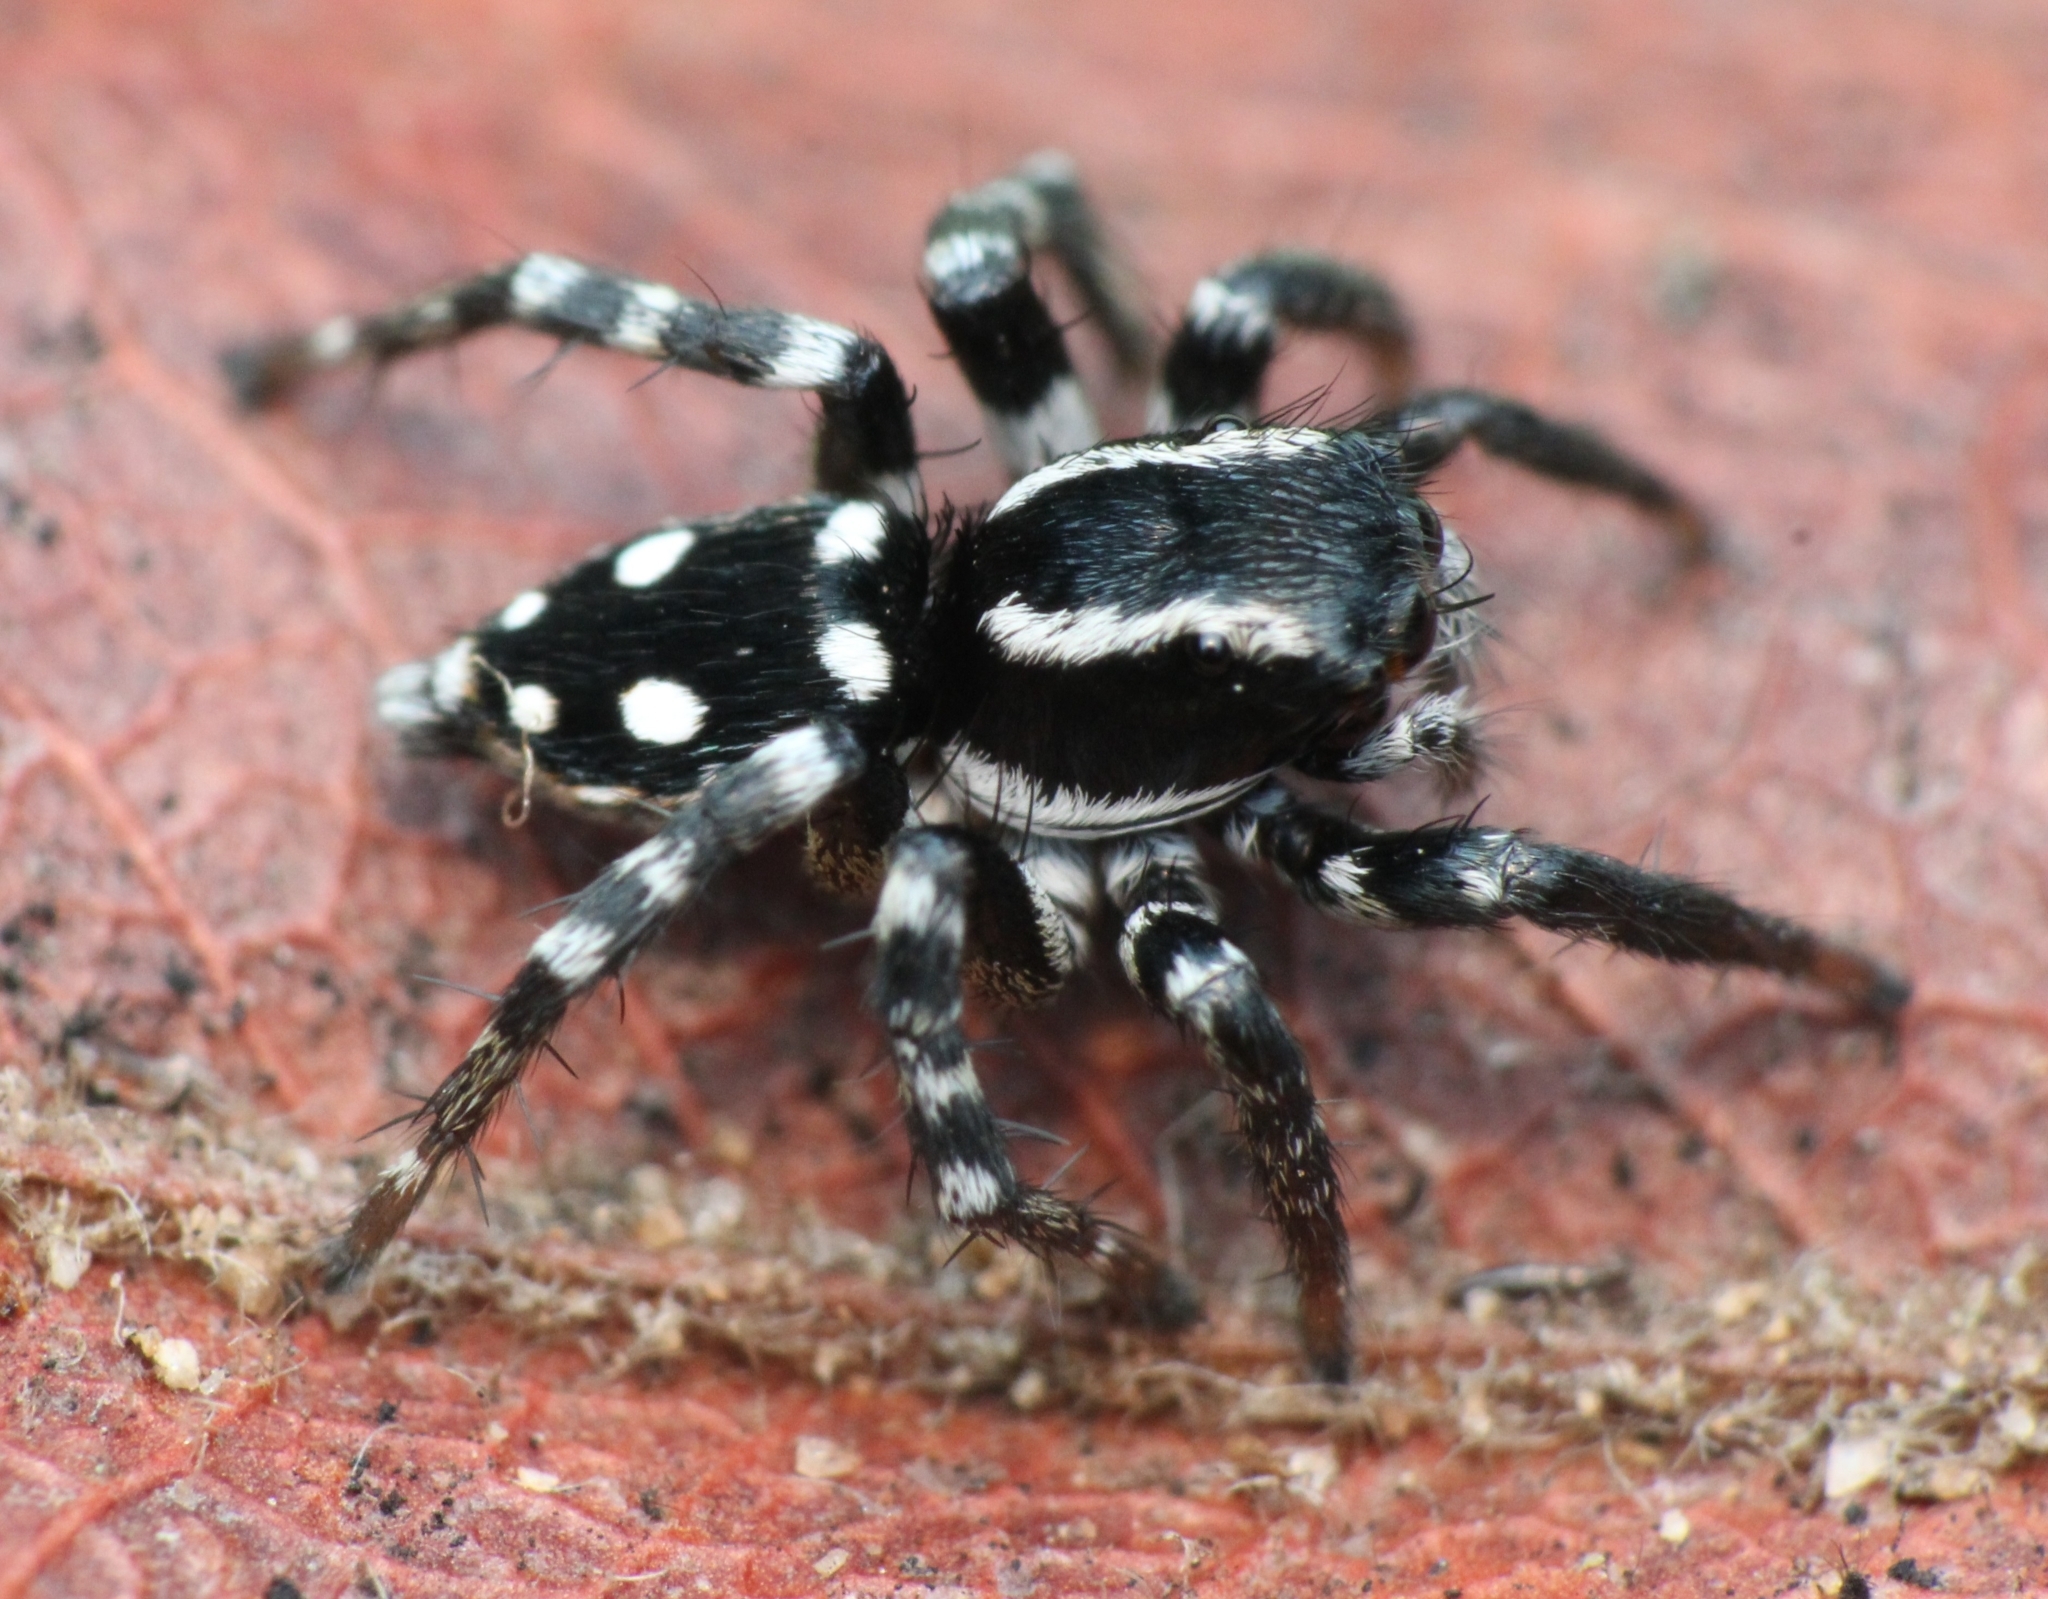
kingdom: Animalia
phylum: Arthropoda
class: Arachnida
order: Araneae
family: Salticidae
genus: Stenaelurillus
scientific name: Stenaelurillus guttatus
